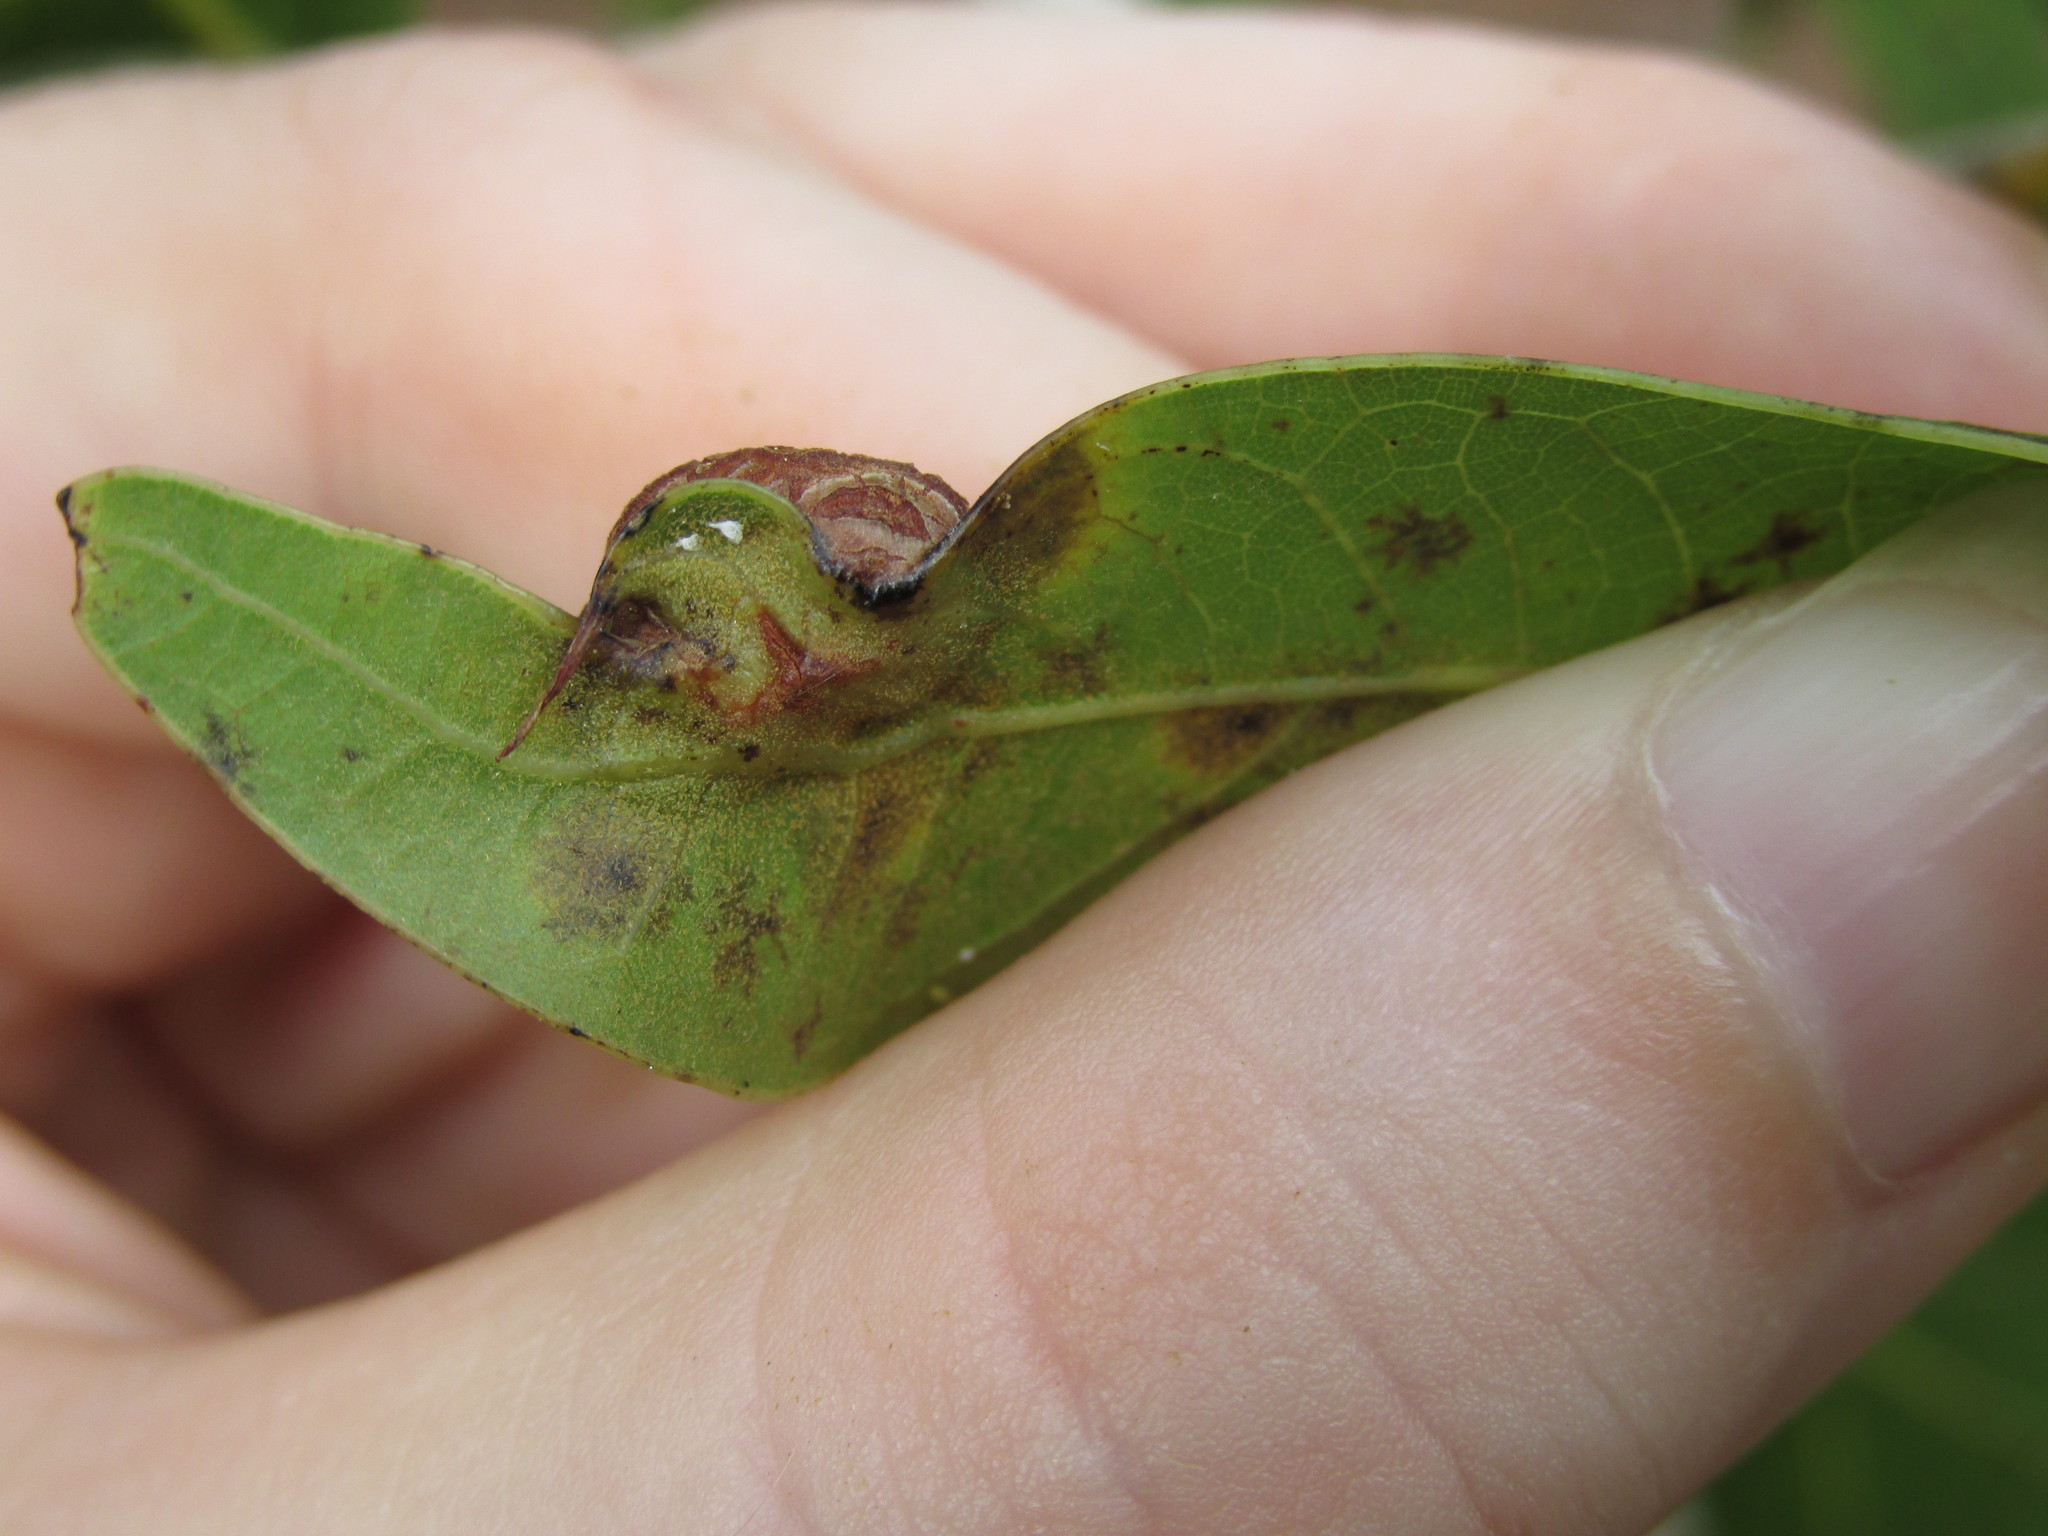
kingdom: Animalia
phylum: Arthropoda
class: Insecta
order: Diptera
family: Cecidomyiidae
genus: Polystepha
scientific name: Polystepha pilulae
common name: Oak leaf gall midge
